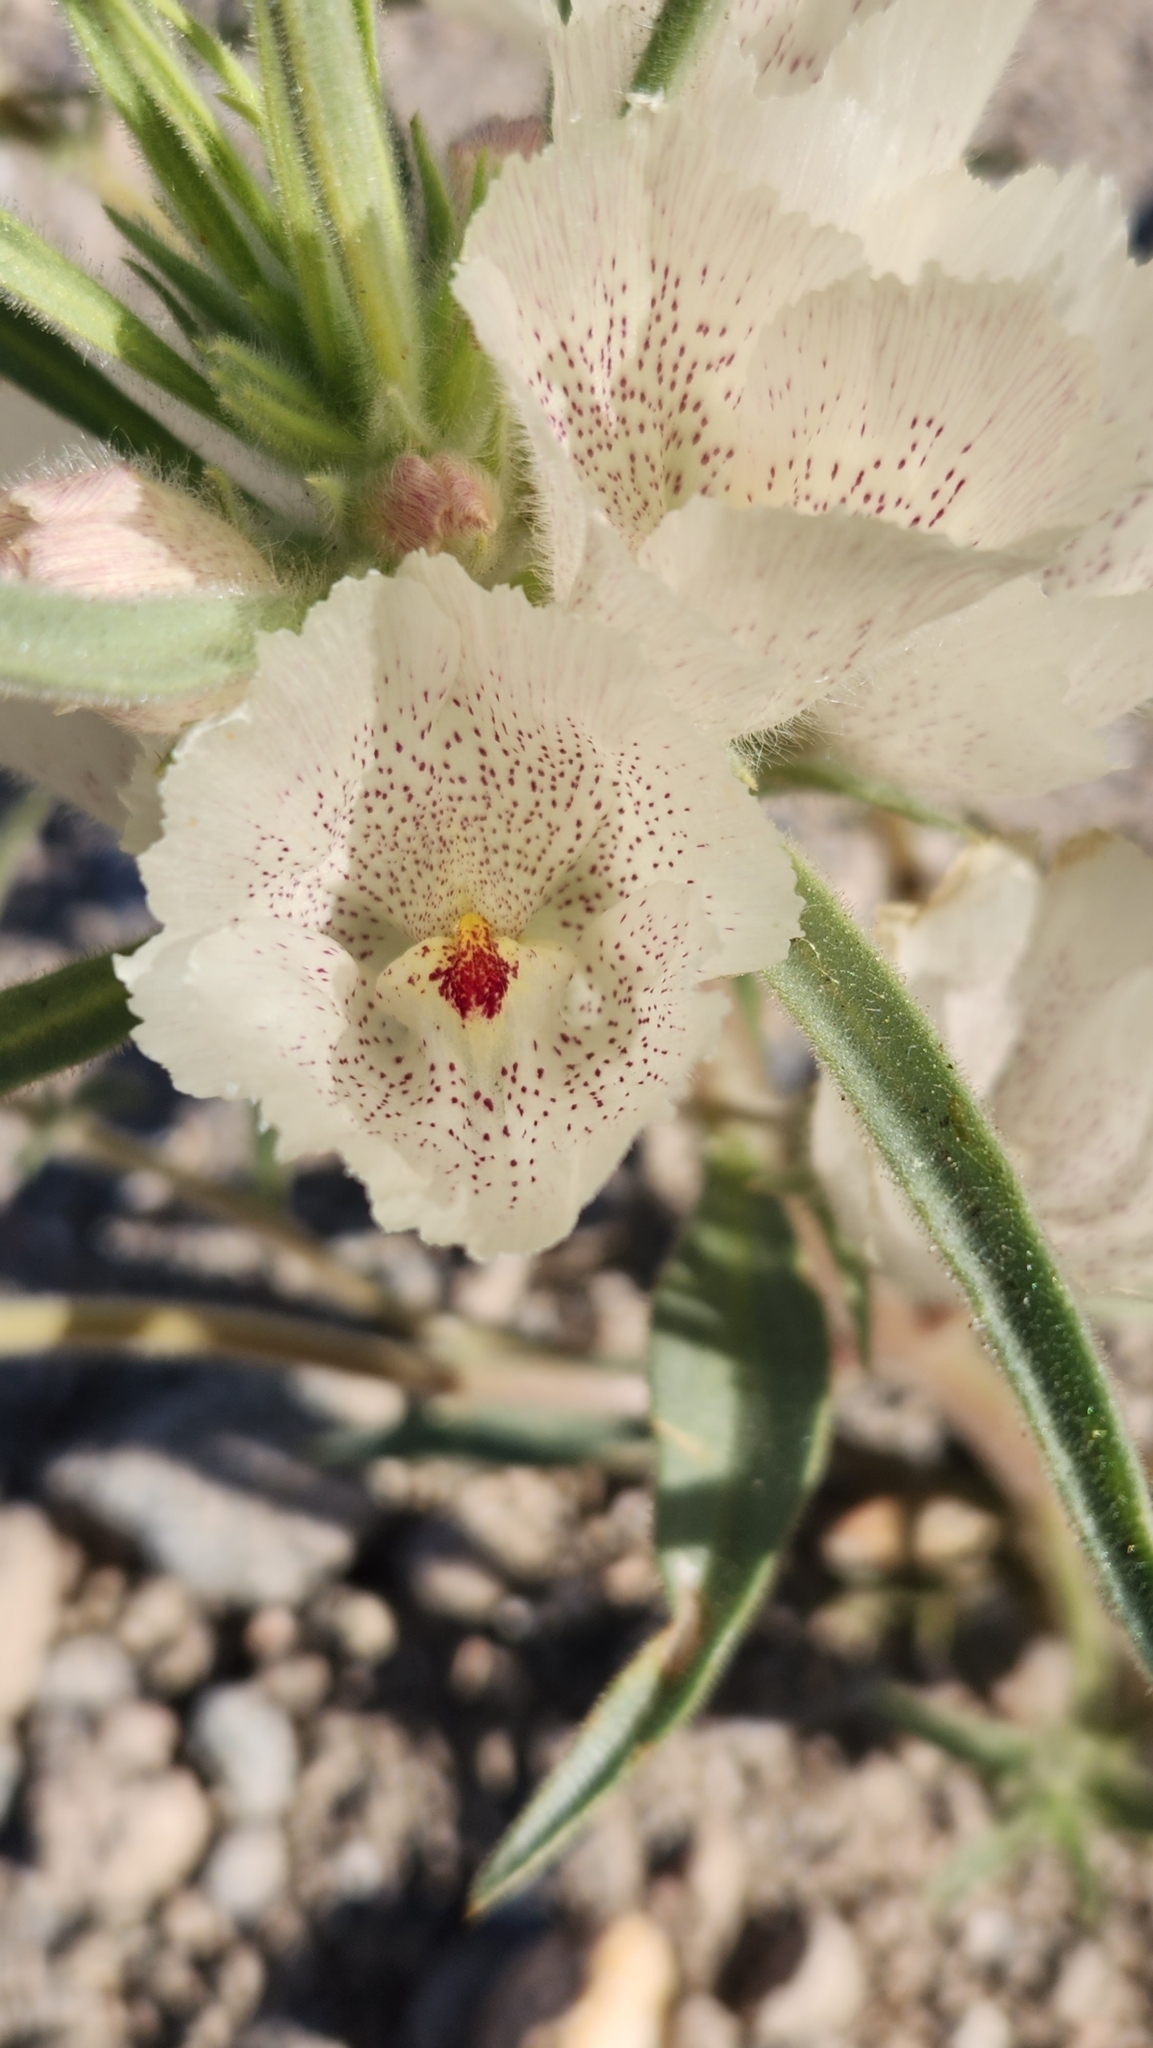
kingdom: Plantae
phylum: Tracheophyta
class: Magnoliopsida
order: Lamiales
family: Plantaginaceae
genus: Mohavea
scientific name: Mohavea confertiflora
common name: Ghost flower
